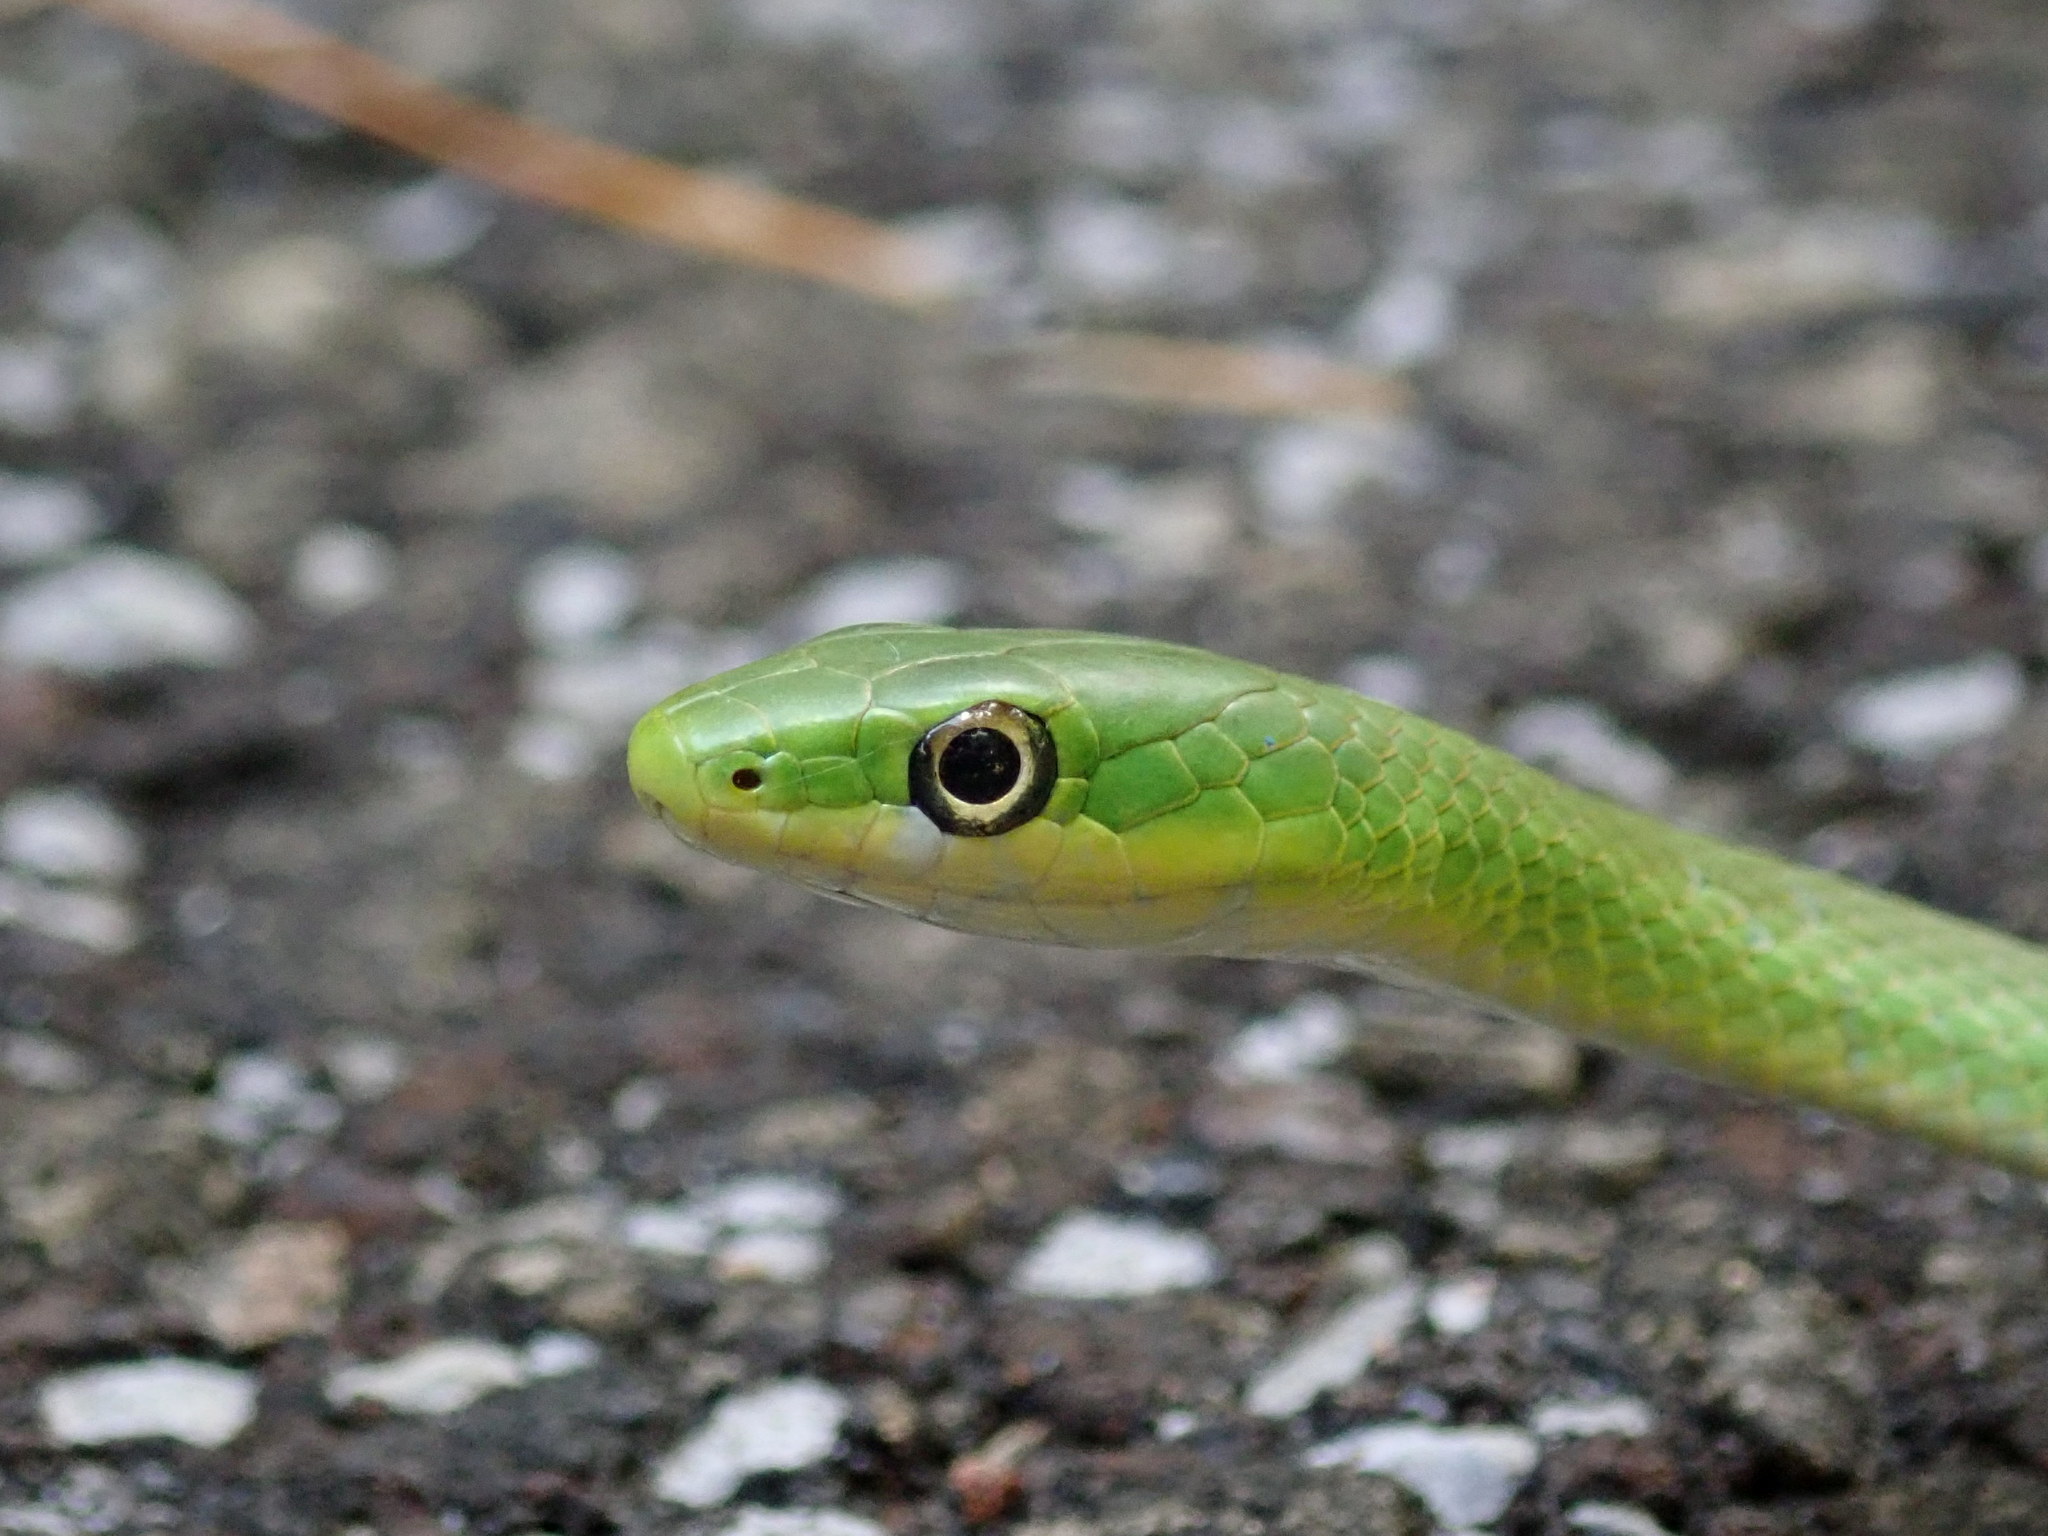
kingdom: Animalia
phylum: Chordata
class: Squamata
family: Colubridae
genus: Opheodrys
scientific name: Opheodrys aestivus
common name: Rough greensnake
